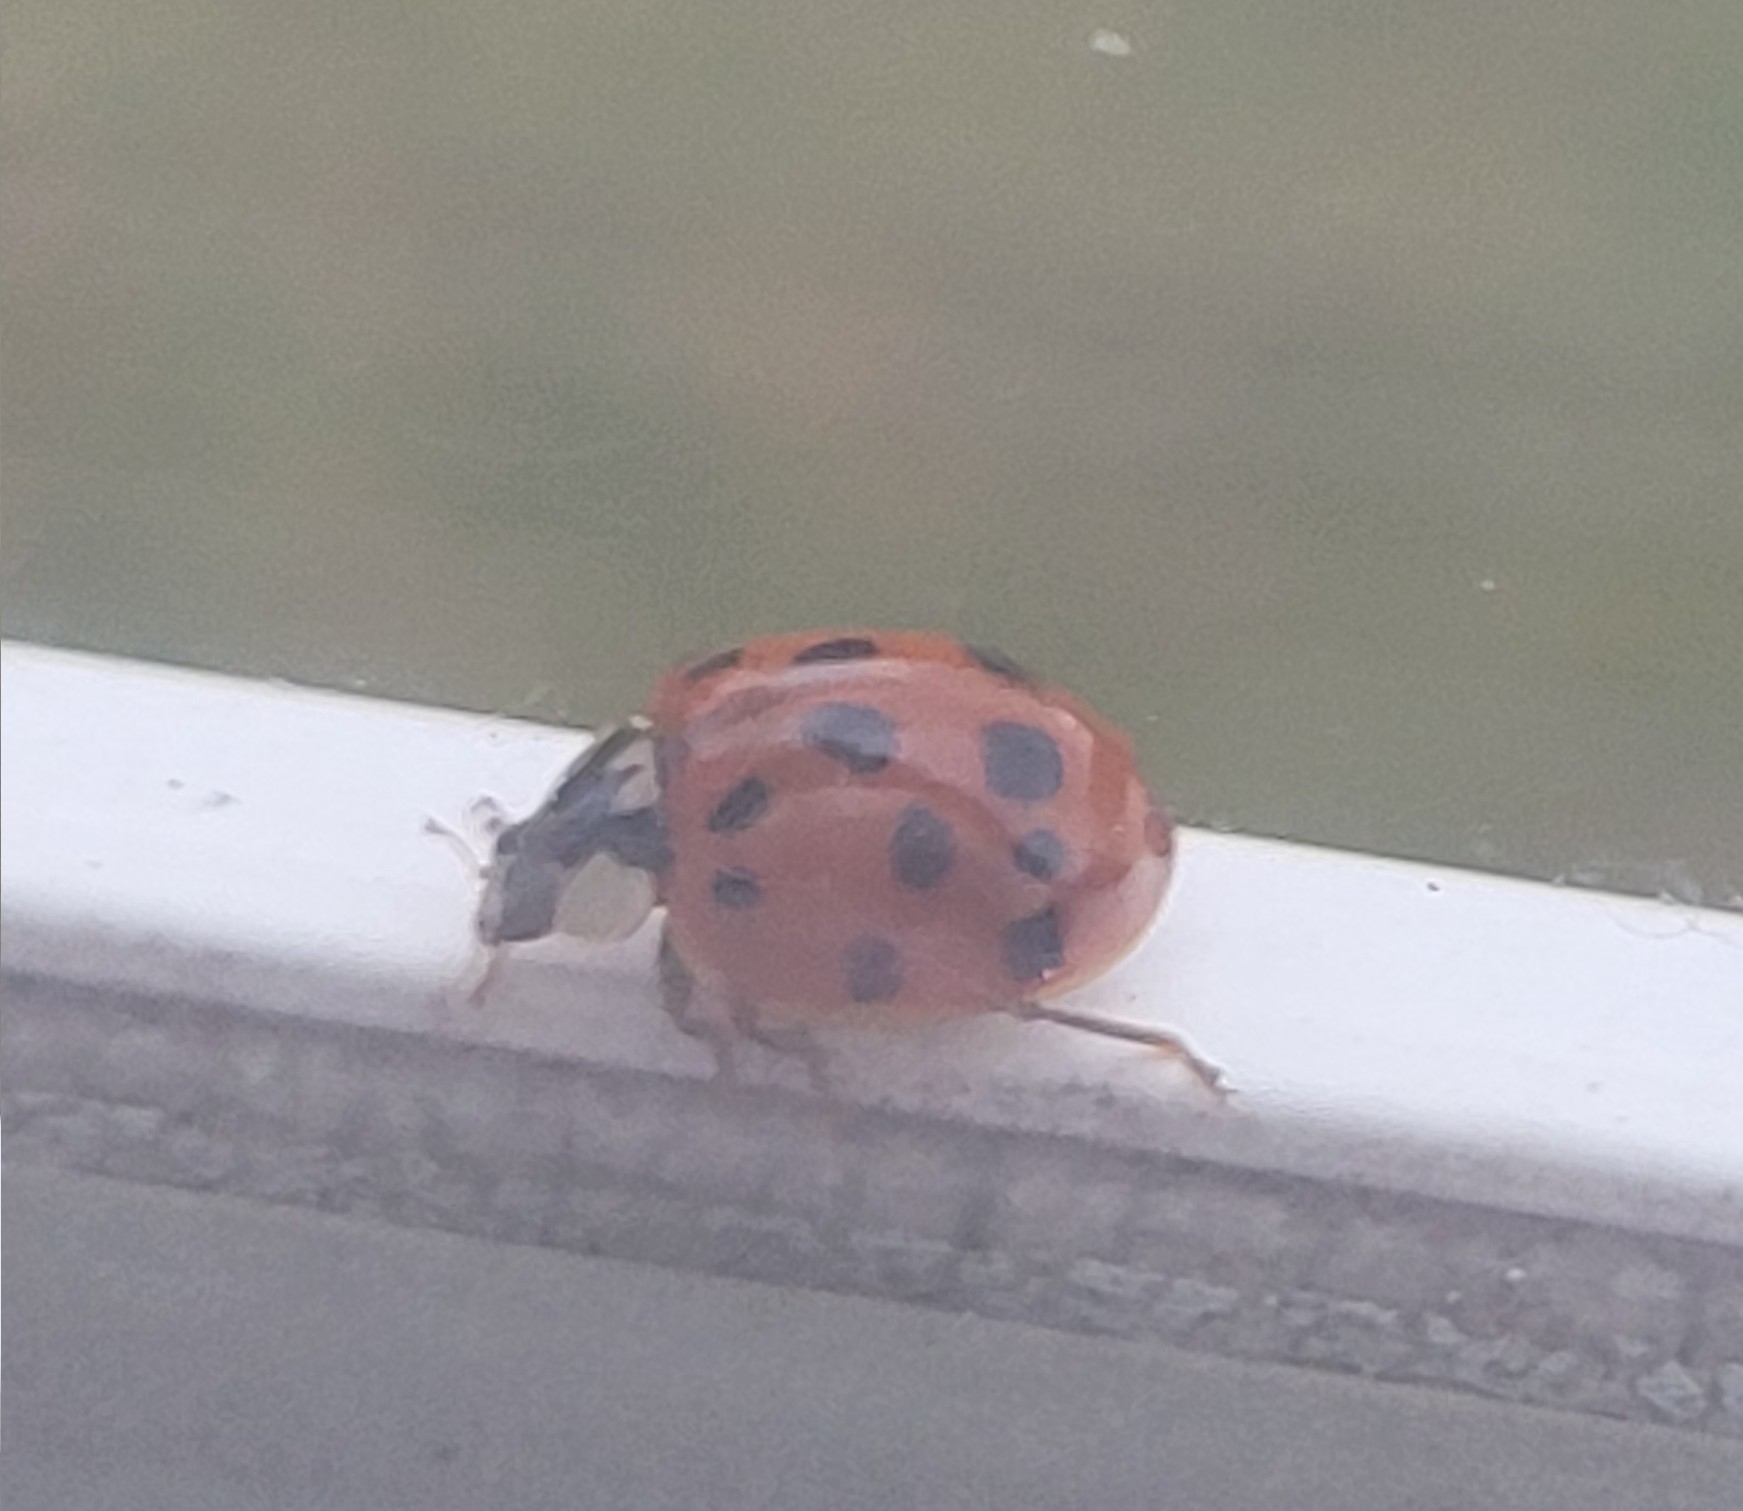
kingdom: Animalia
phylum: Arthropoda
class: Insecta
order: Coleoptera
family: Coccinellidae
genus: Harmonia
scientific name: Harmonia axyridis
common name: Harlequin ladybird
